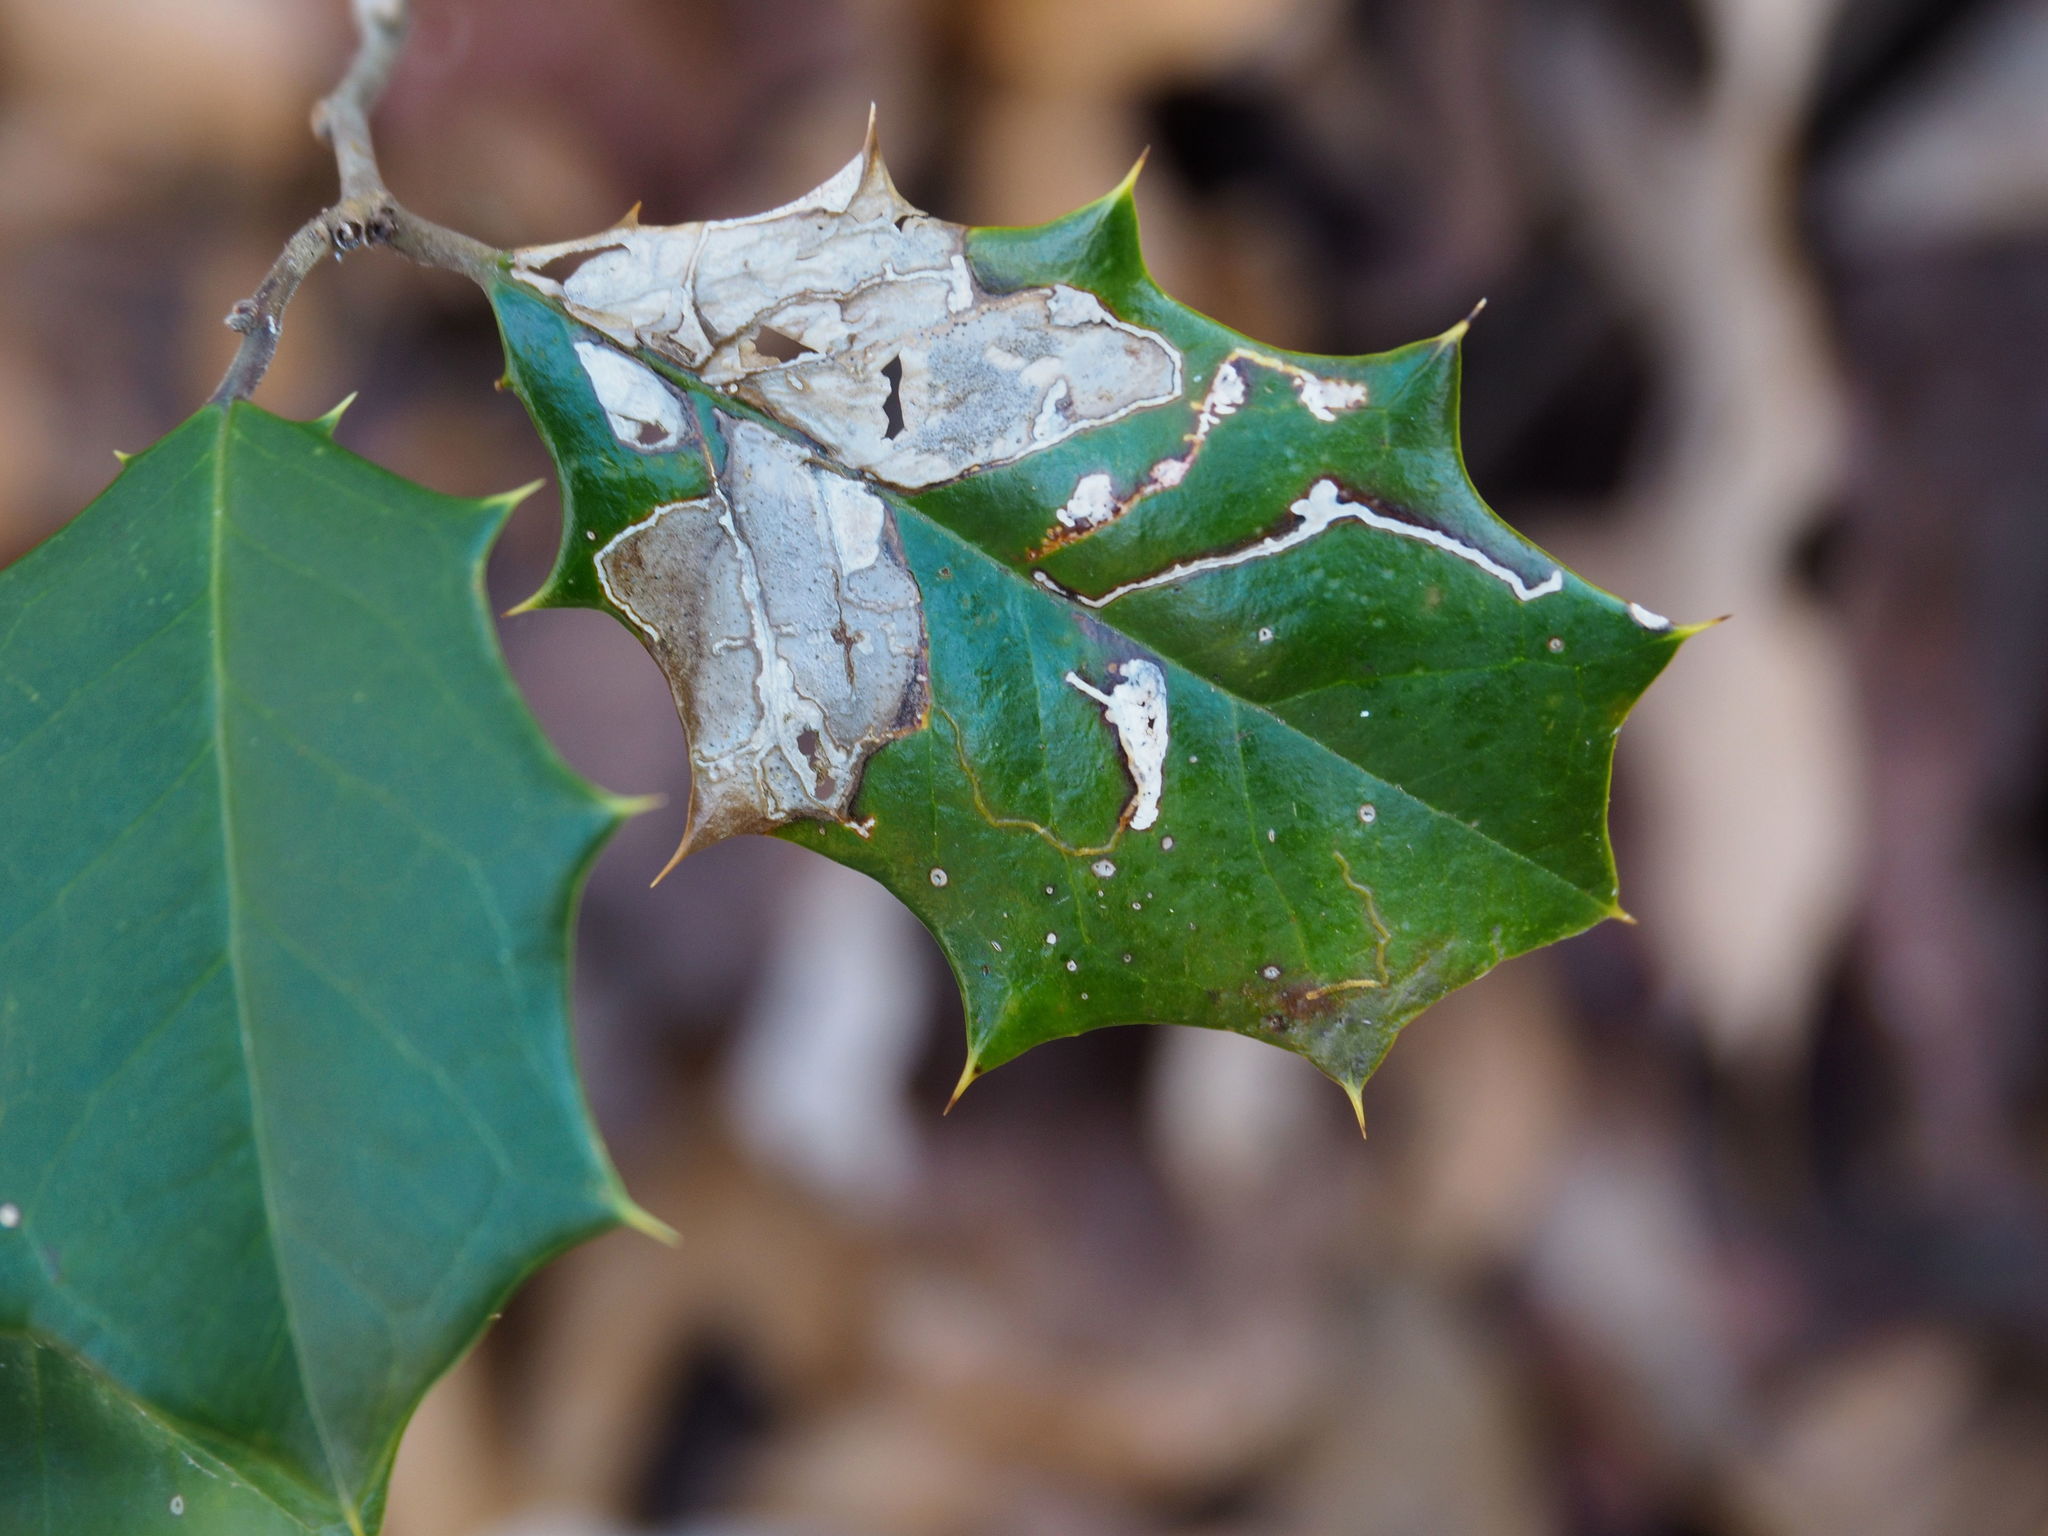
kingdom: Animalia
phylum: Arthropoda
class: Insecta
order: Diptera
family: Agromyzidae
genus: Phytomyza
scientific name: Phytomyza ilicicola
